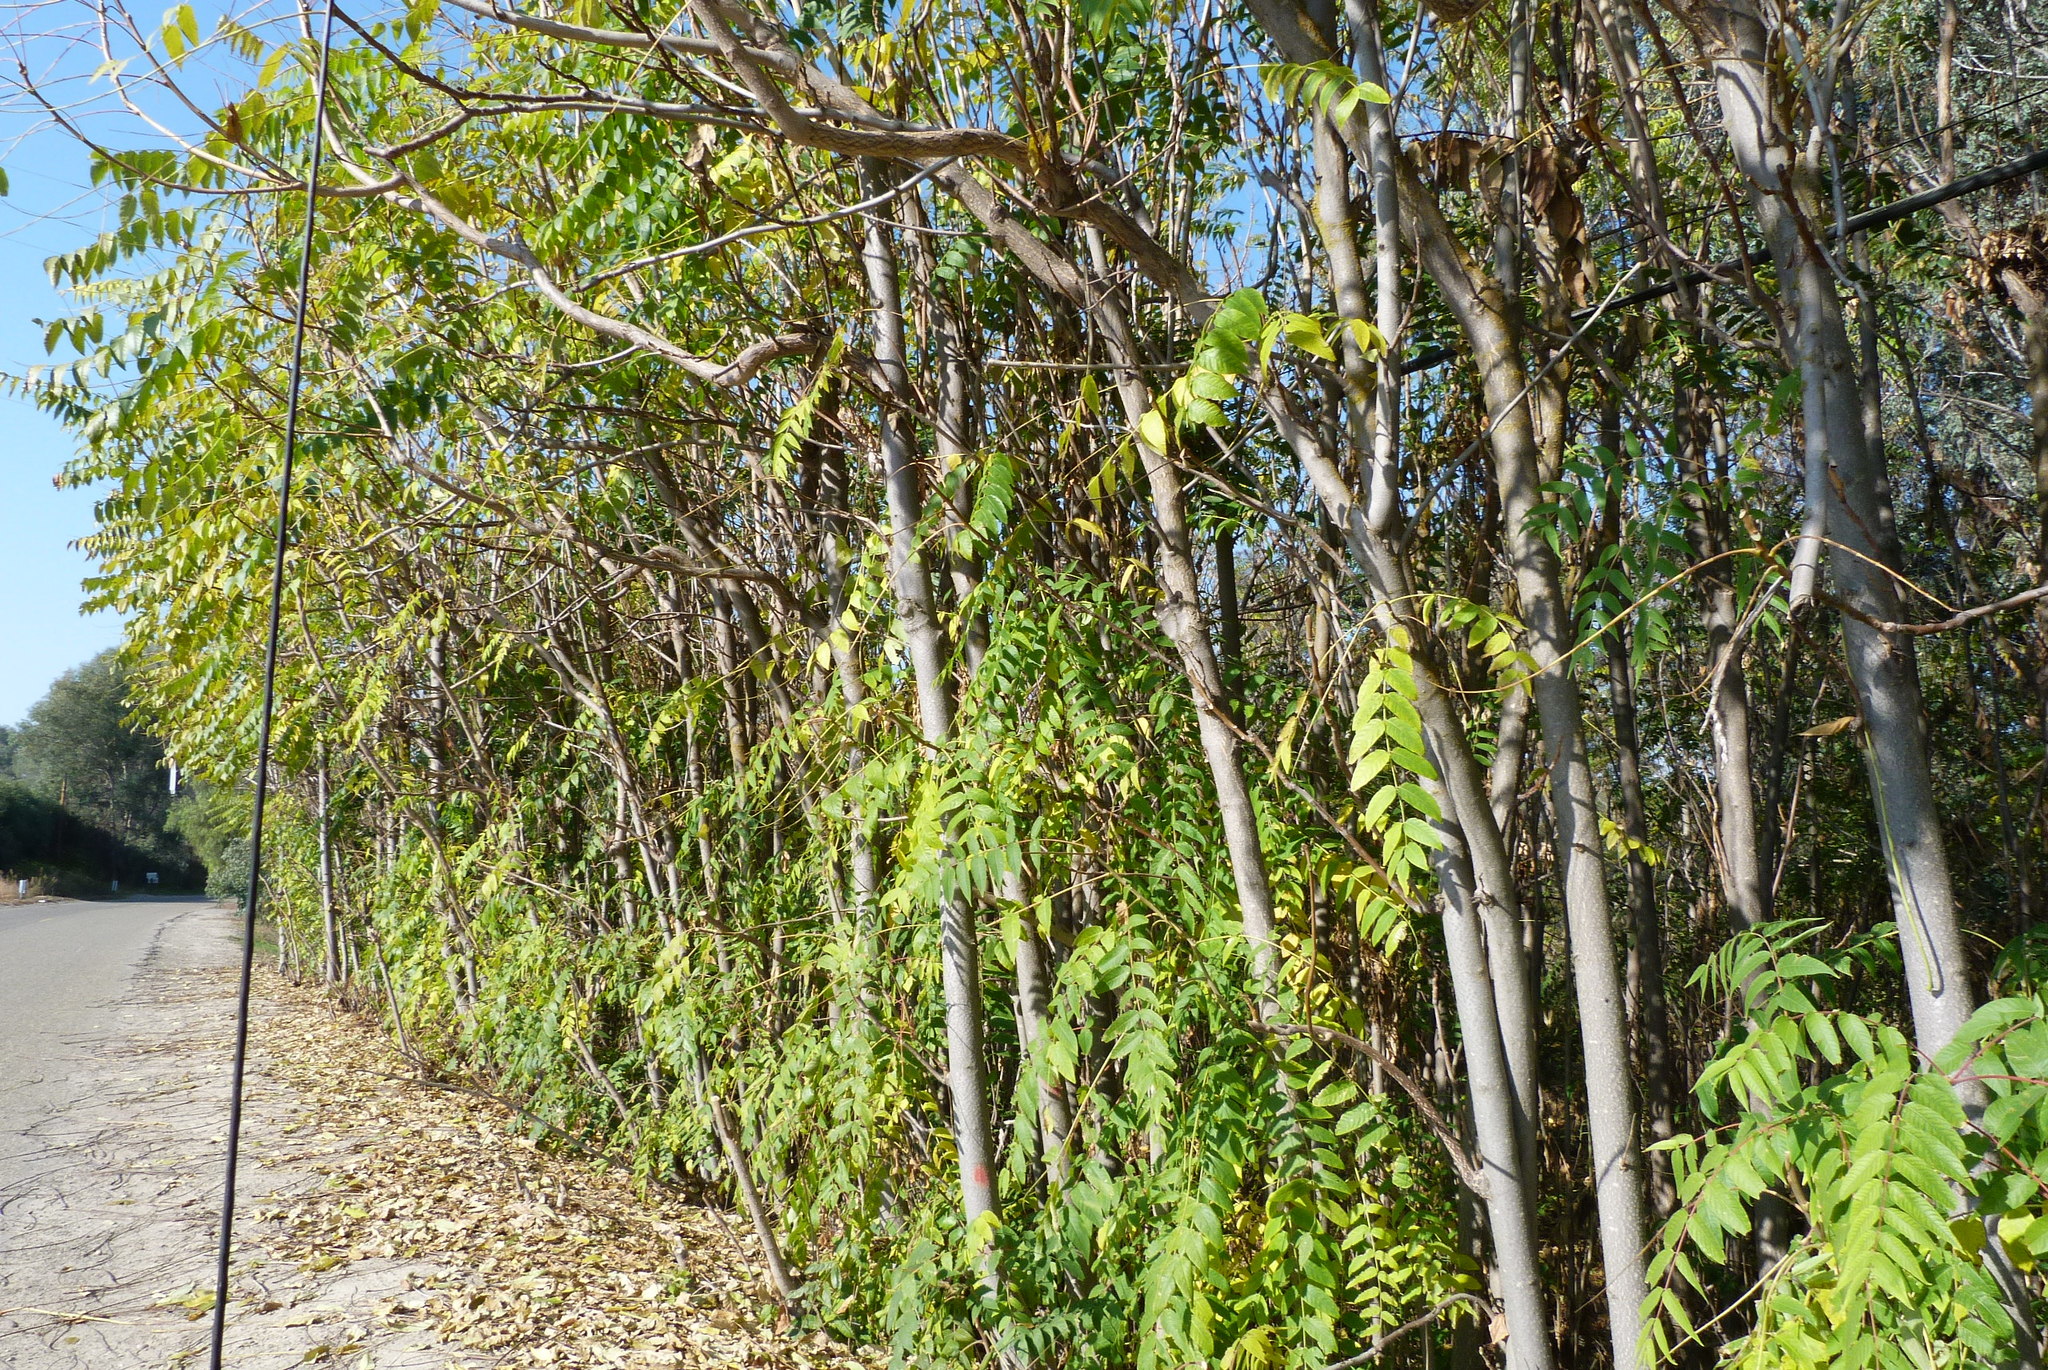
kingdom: Plantae
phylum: Tracheophyta
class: Magnoliopsida
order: Sapindales
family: Simaroubaceae
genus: Ailanthus
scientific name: Ailanthus altissima
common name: Tree-of-heaven
